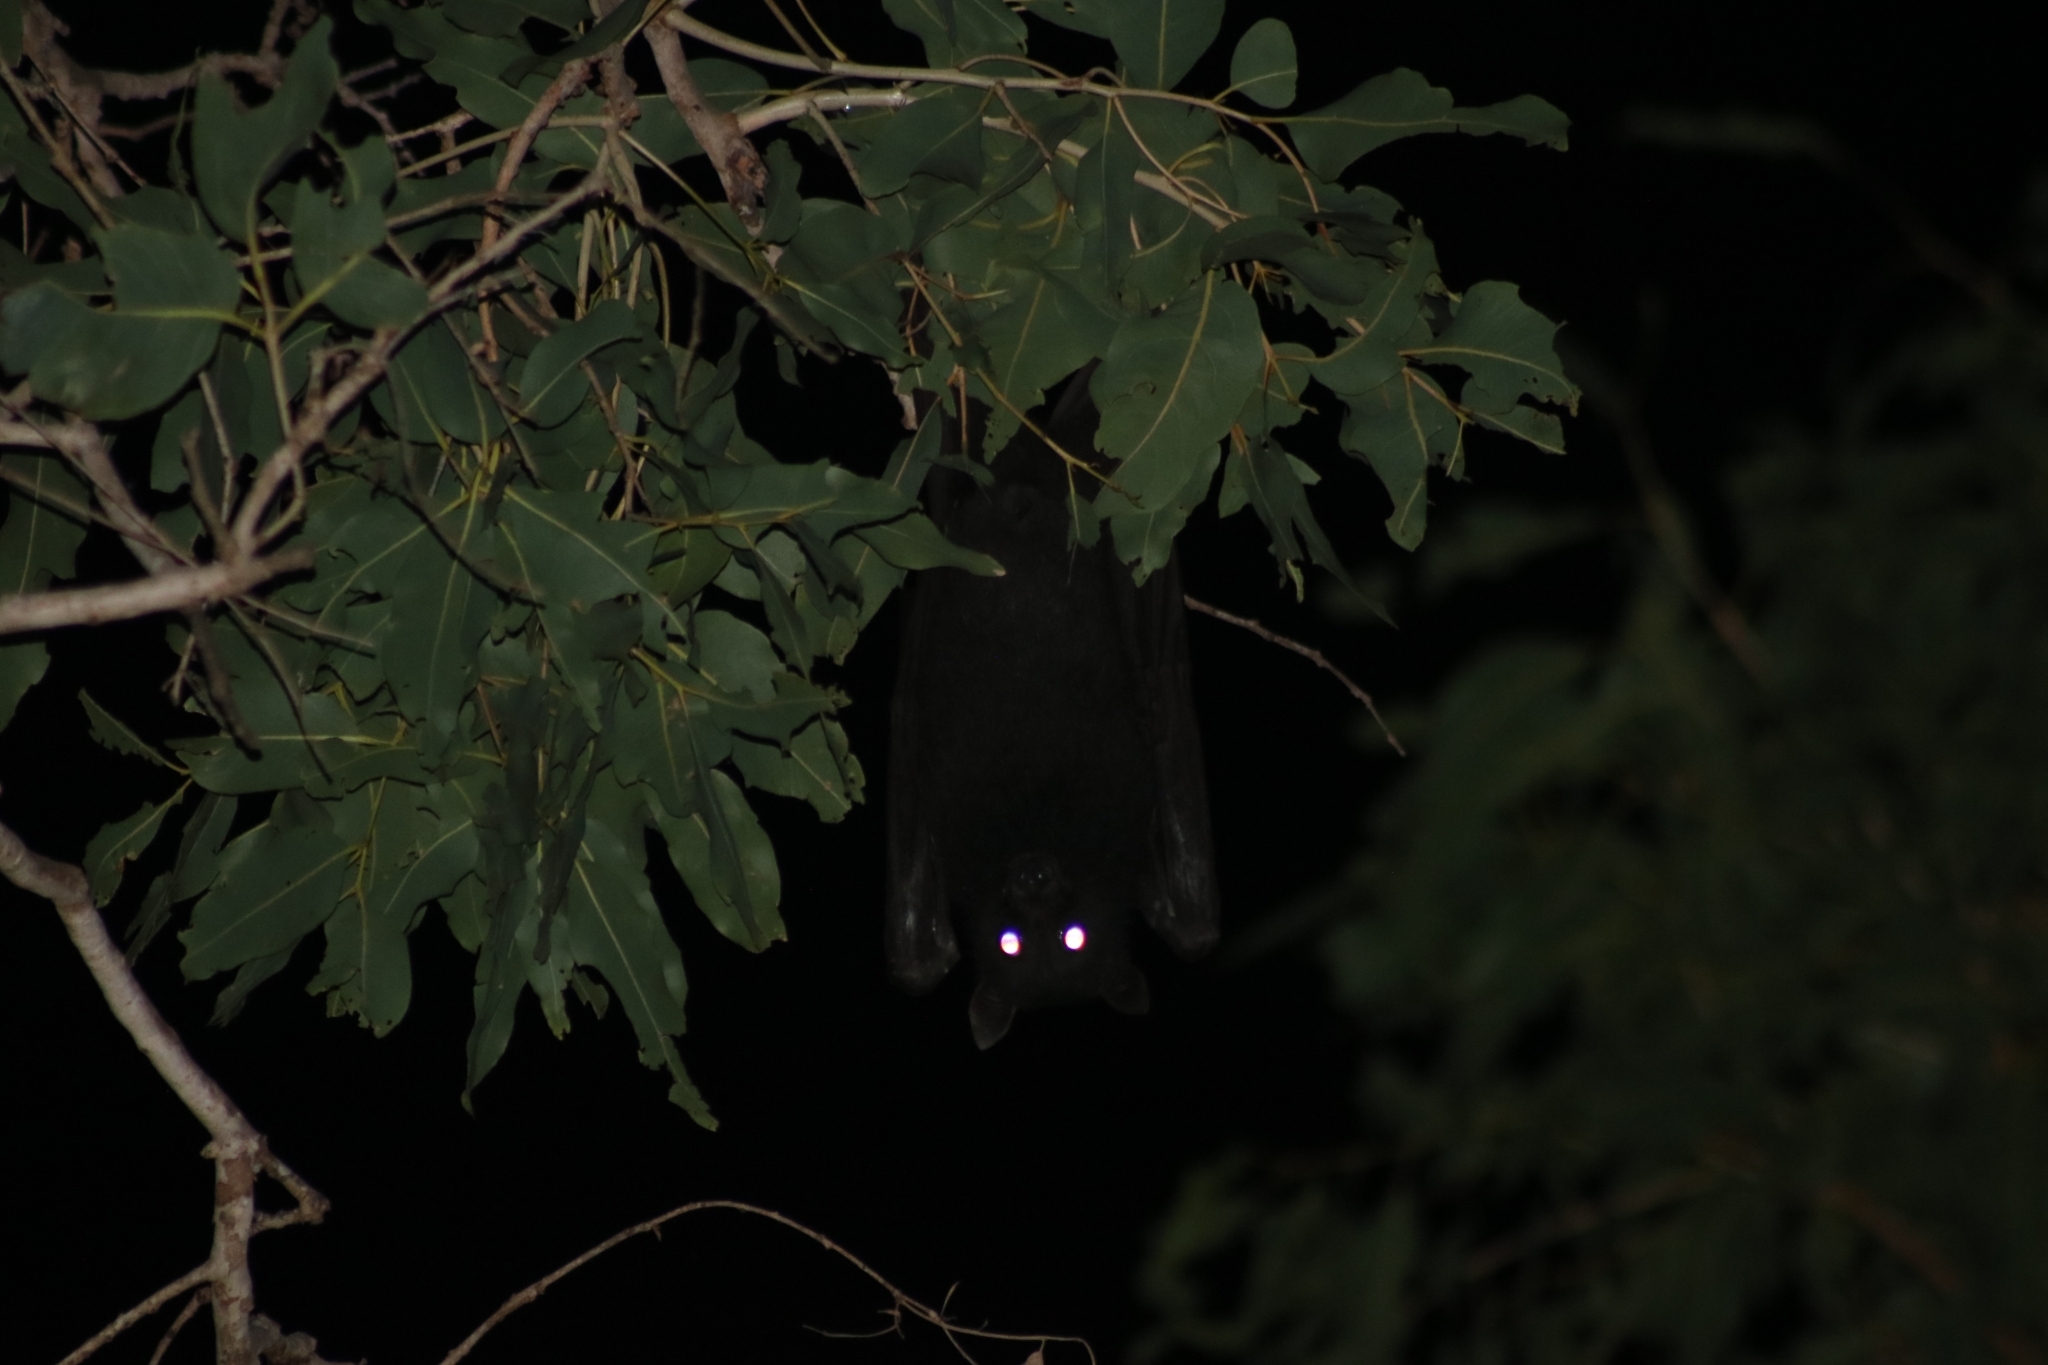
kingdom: Animalia
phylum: Chordata
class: Mammalia
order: Chiroptera
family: Pteropodidae
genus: Pteropus
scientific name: Pteropus alecto
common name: Black flying fox
